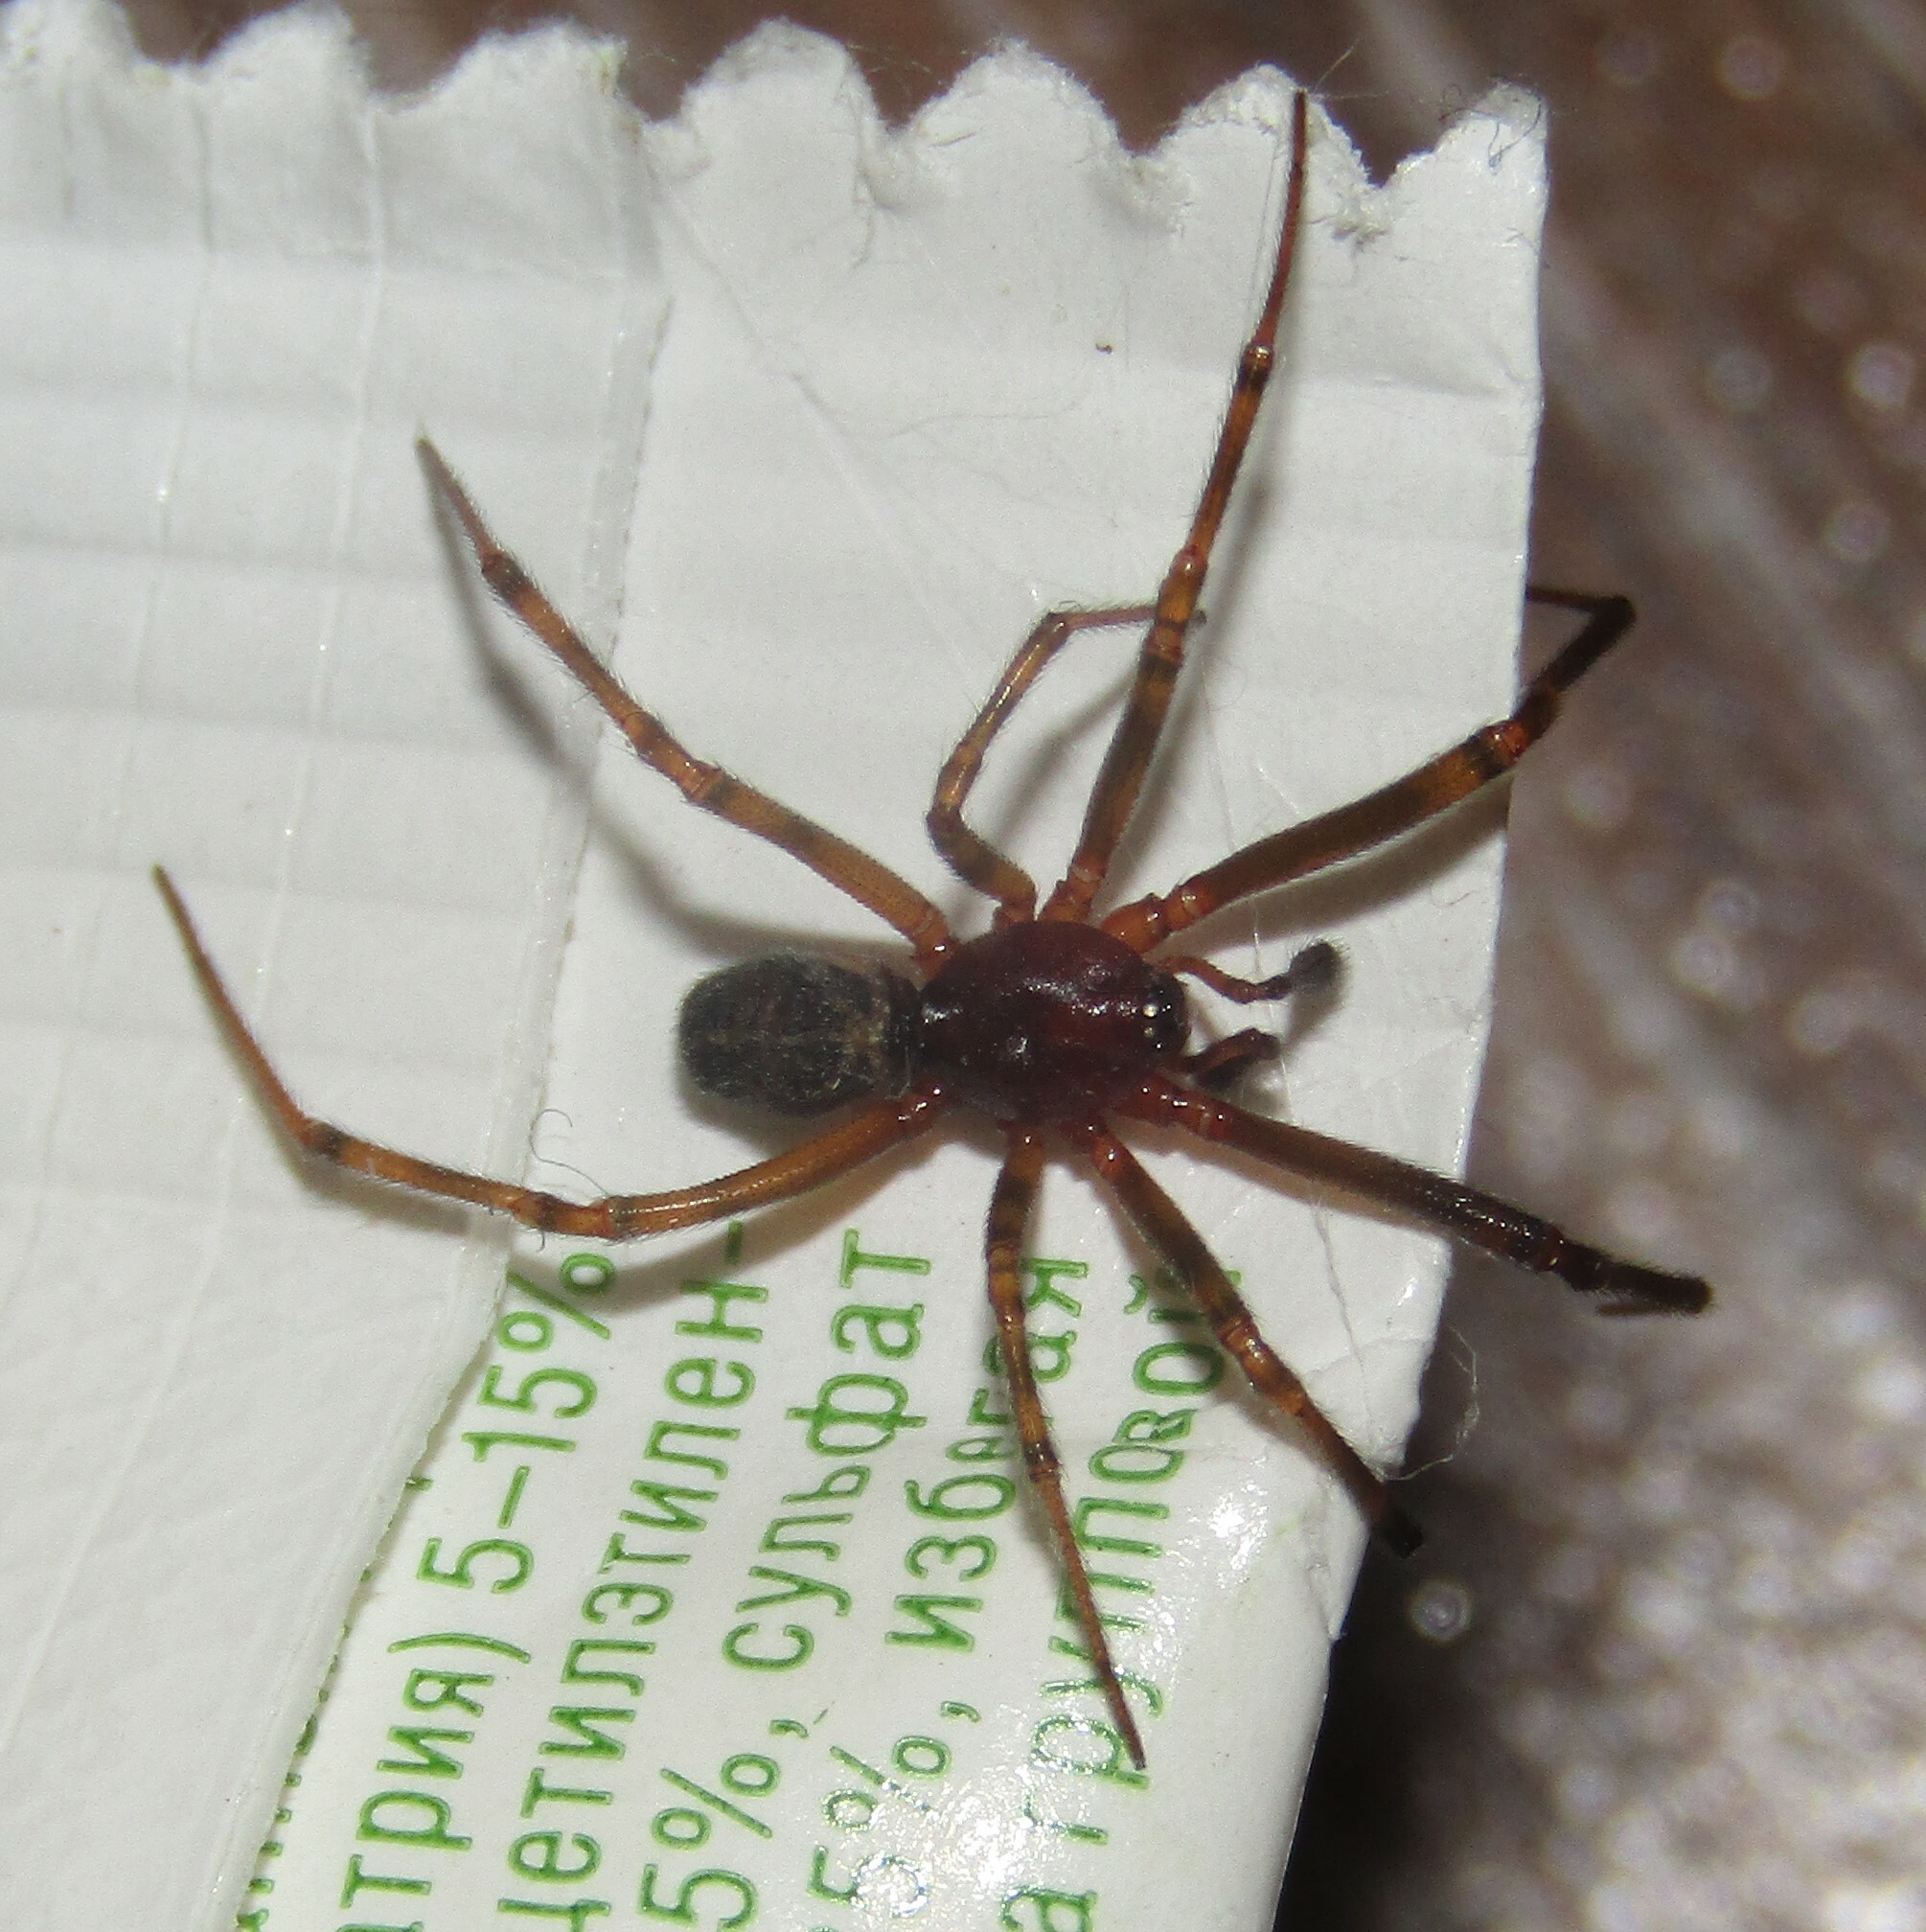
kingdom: Animalia
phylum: Arthropoda
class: Arachnida
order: Araneae
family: Theridiidae
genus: Steatoda
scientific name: Steatoda castanea
